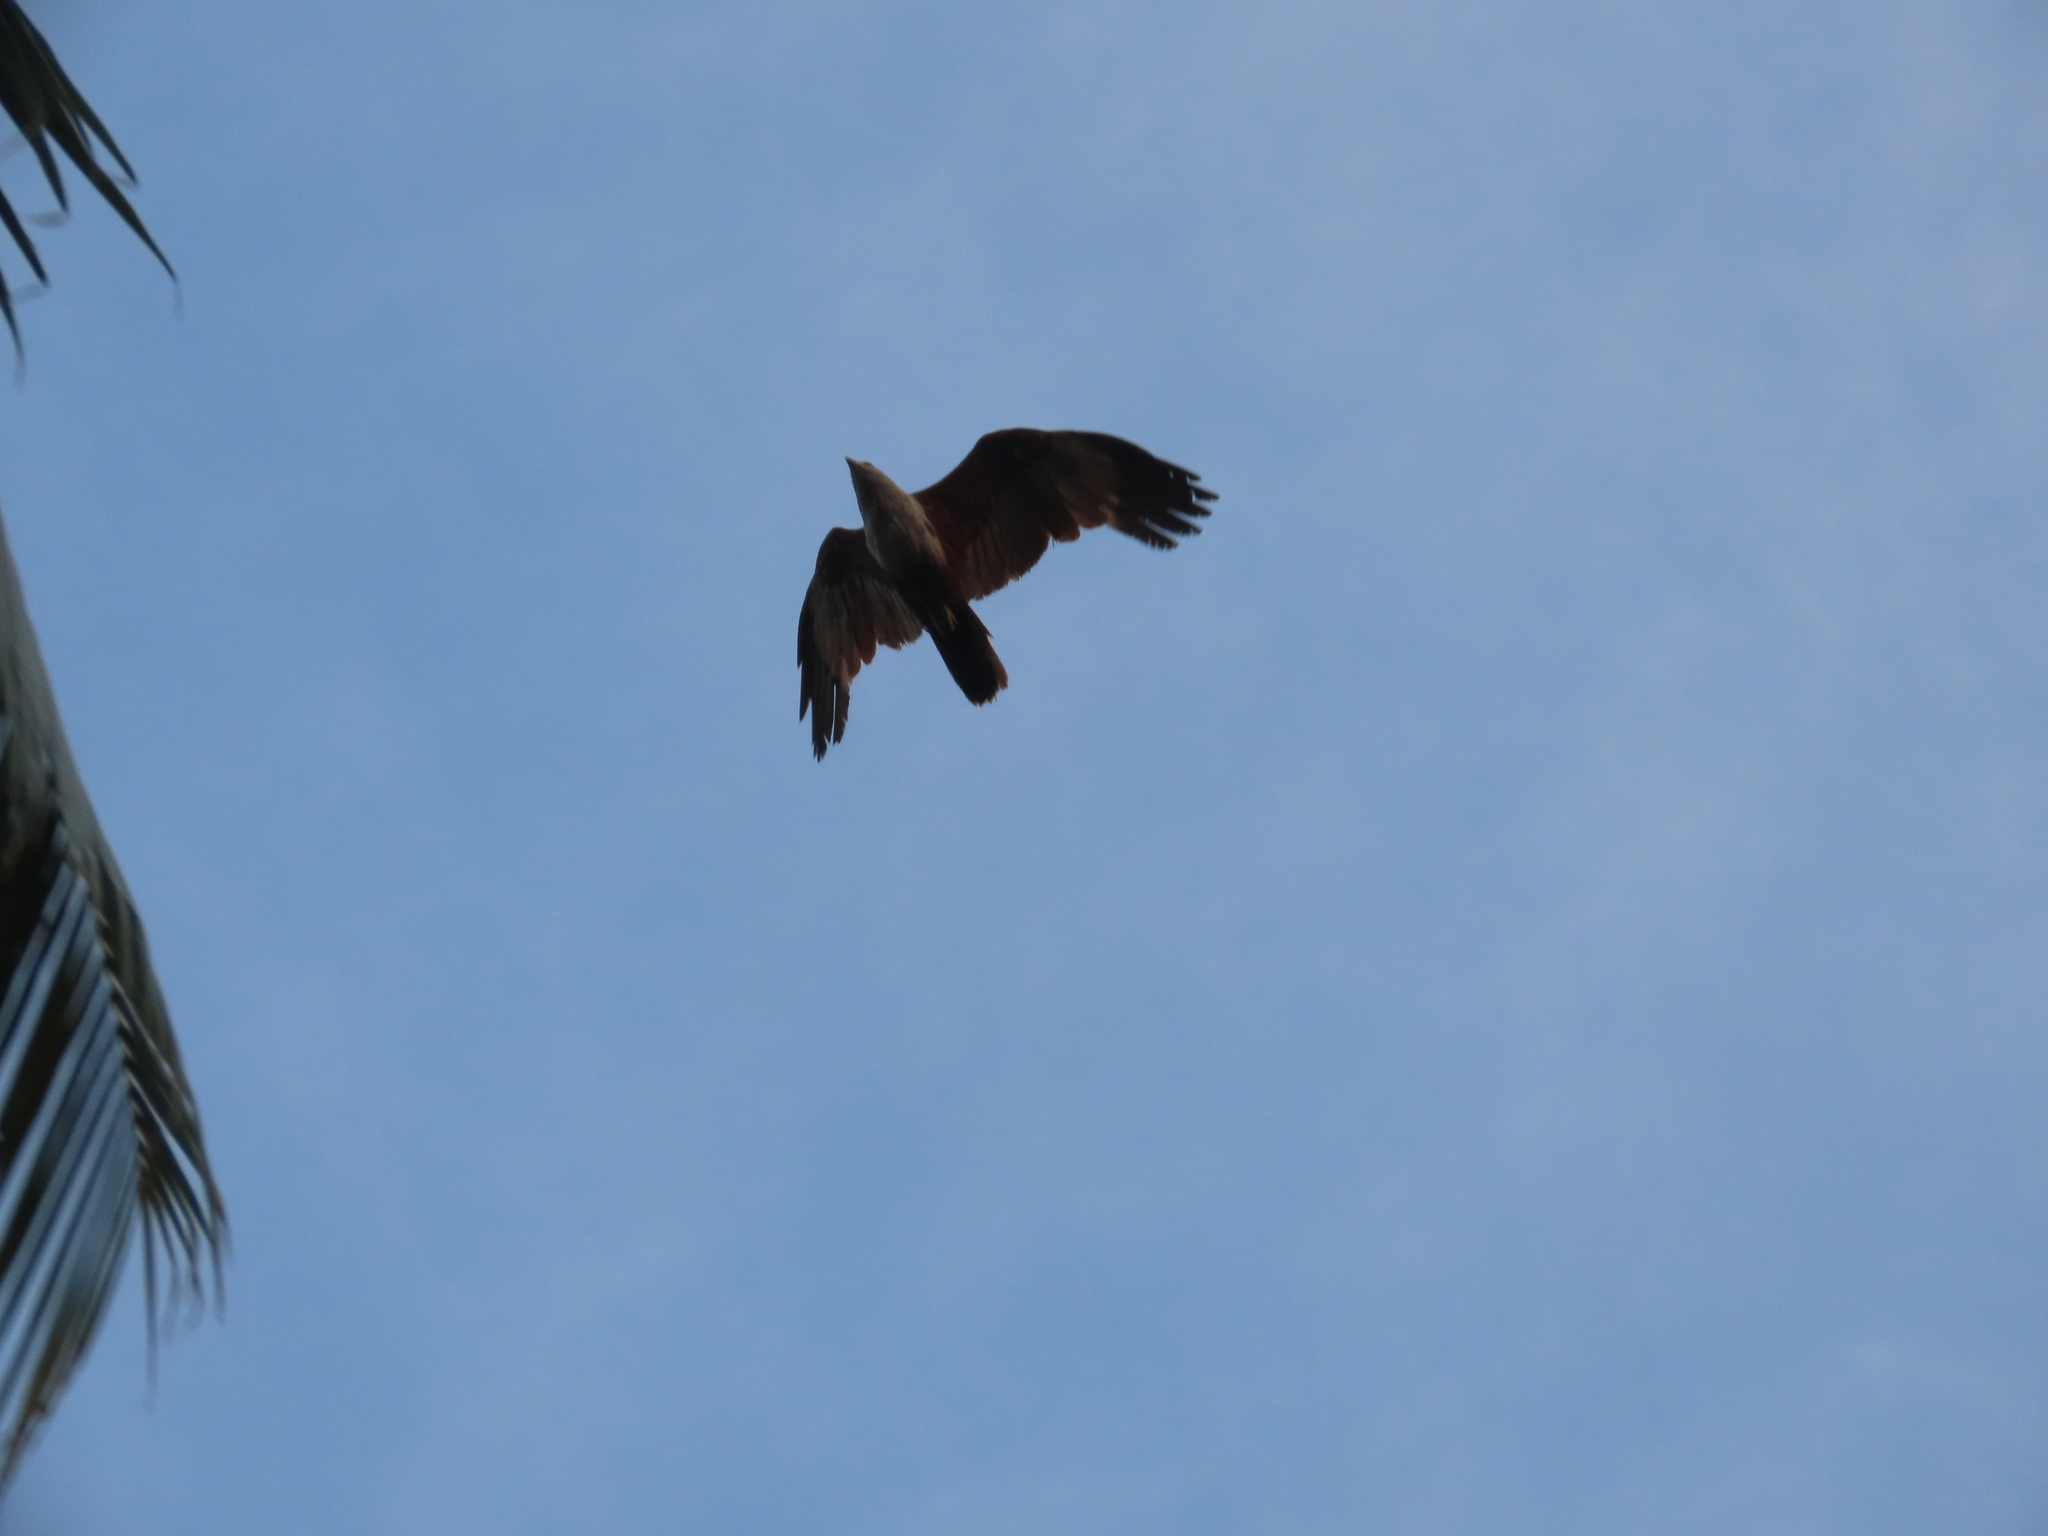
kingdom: Animalia
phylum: Chordata
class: Aves
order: Accipitriformes
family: Accipitridae
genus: Haliastur
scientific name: Haliastur indus
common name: Brahminy kite
